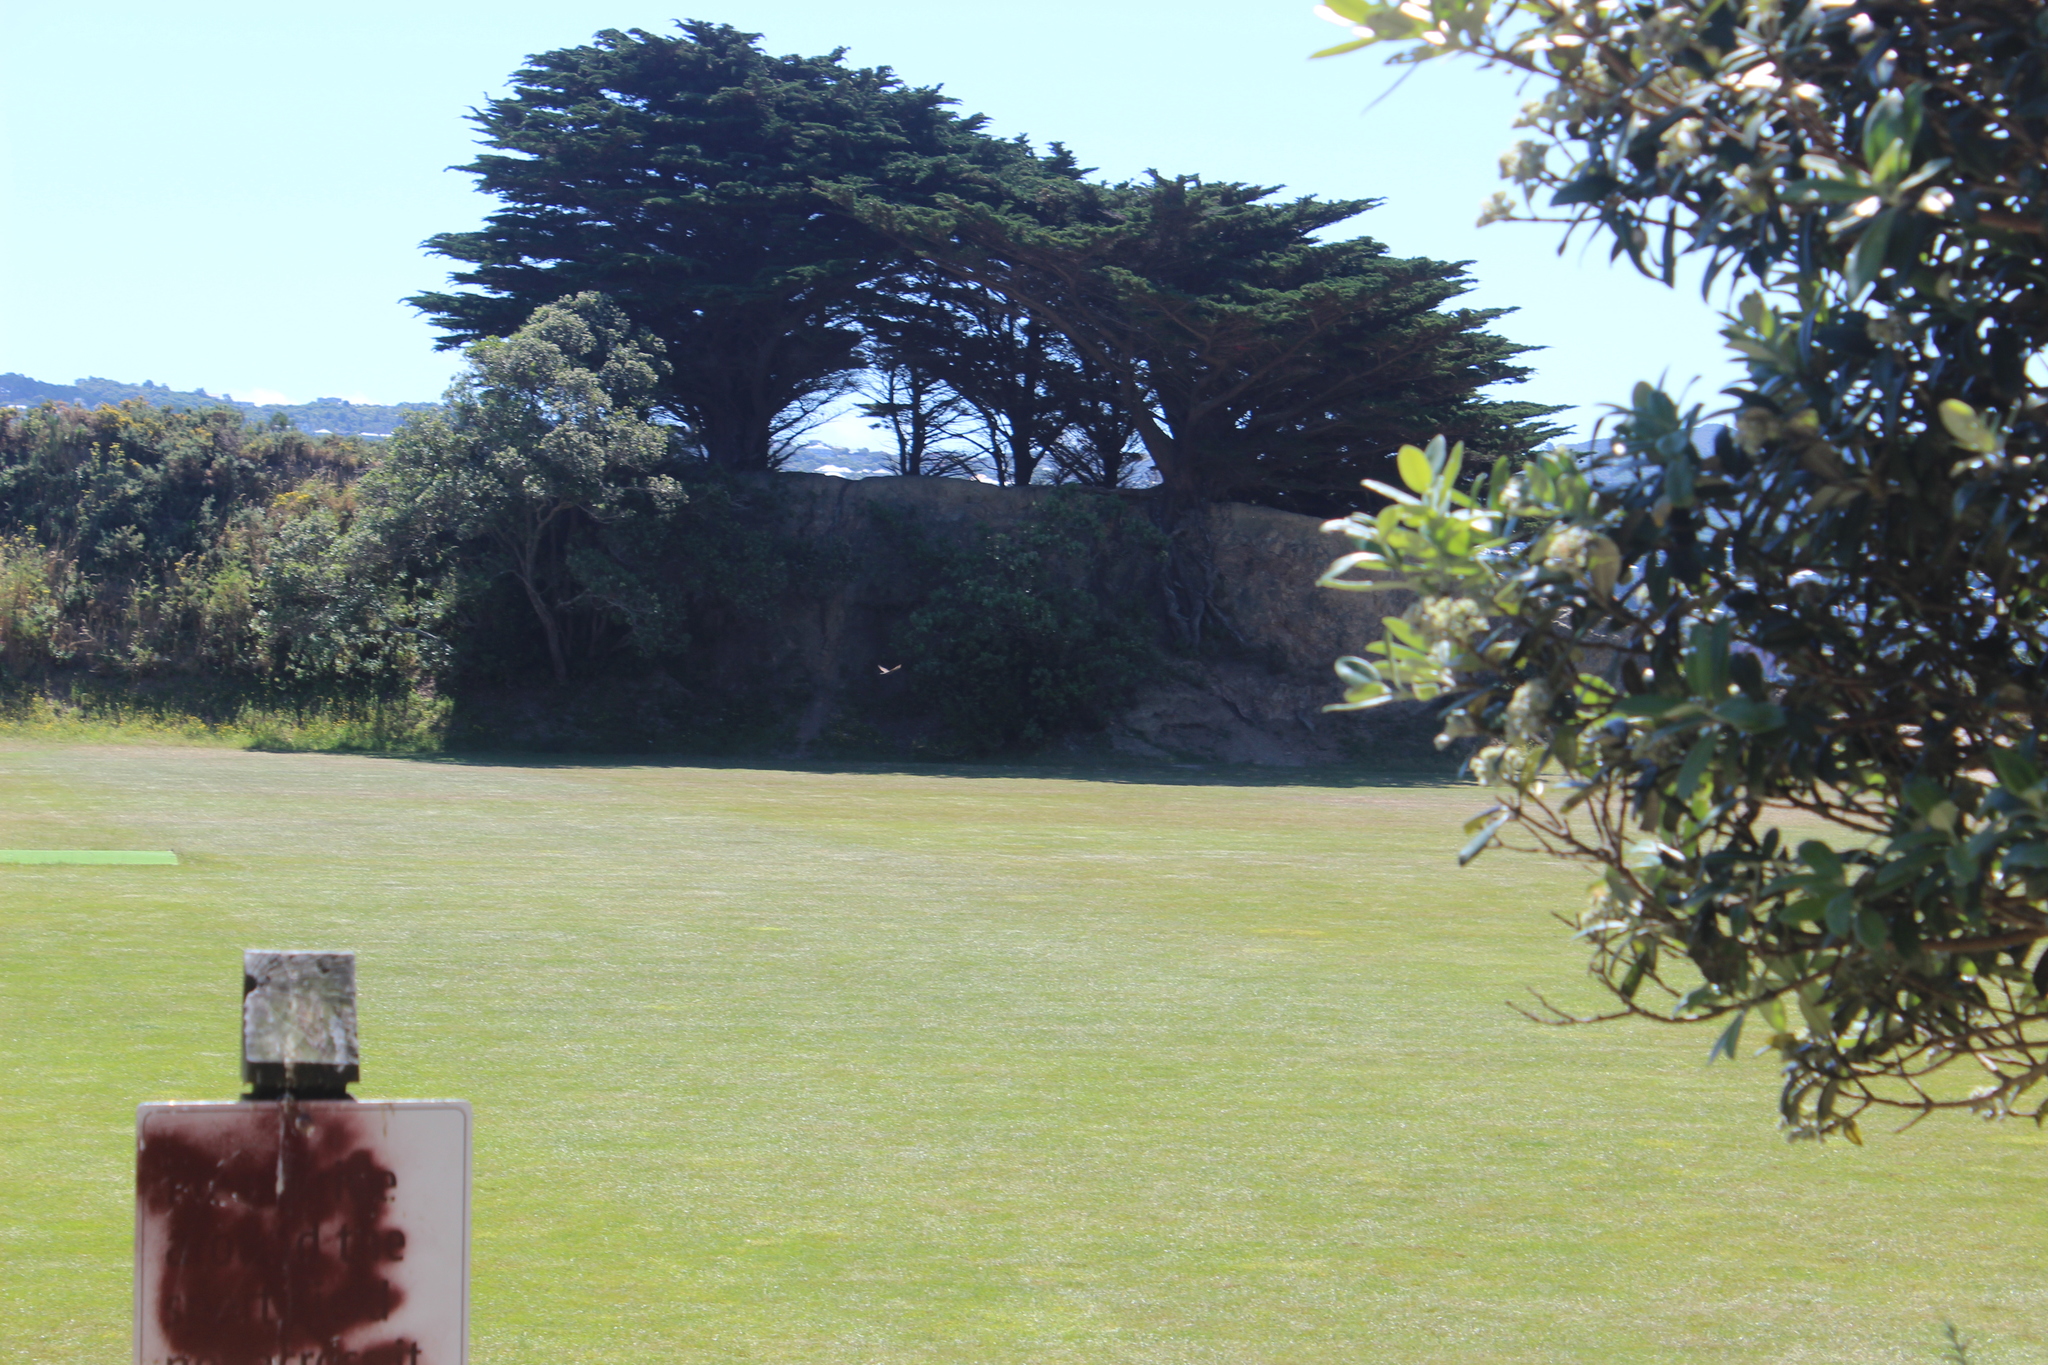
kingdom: Animalia
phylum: Chordata
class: Aves
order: Falconiformes
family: Falconidae
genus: Falco
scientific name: Falco novaeseelandiae
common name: New zealand falcon
